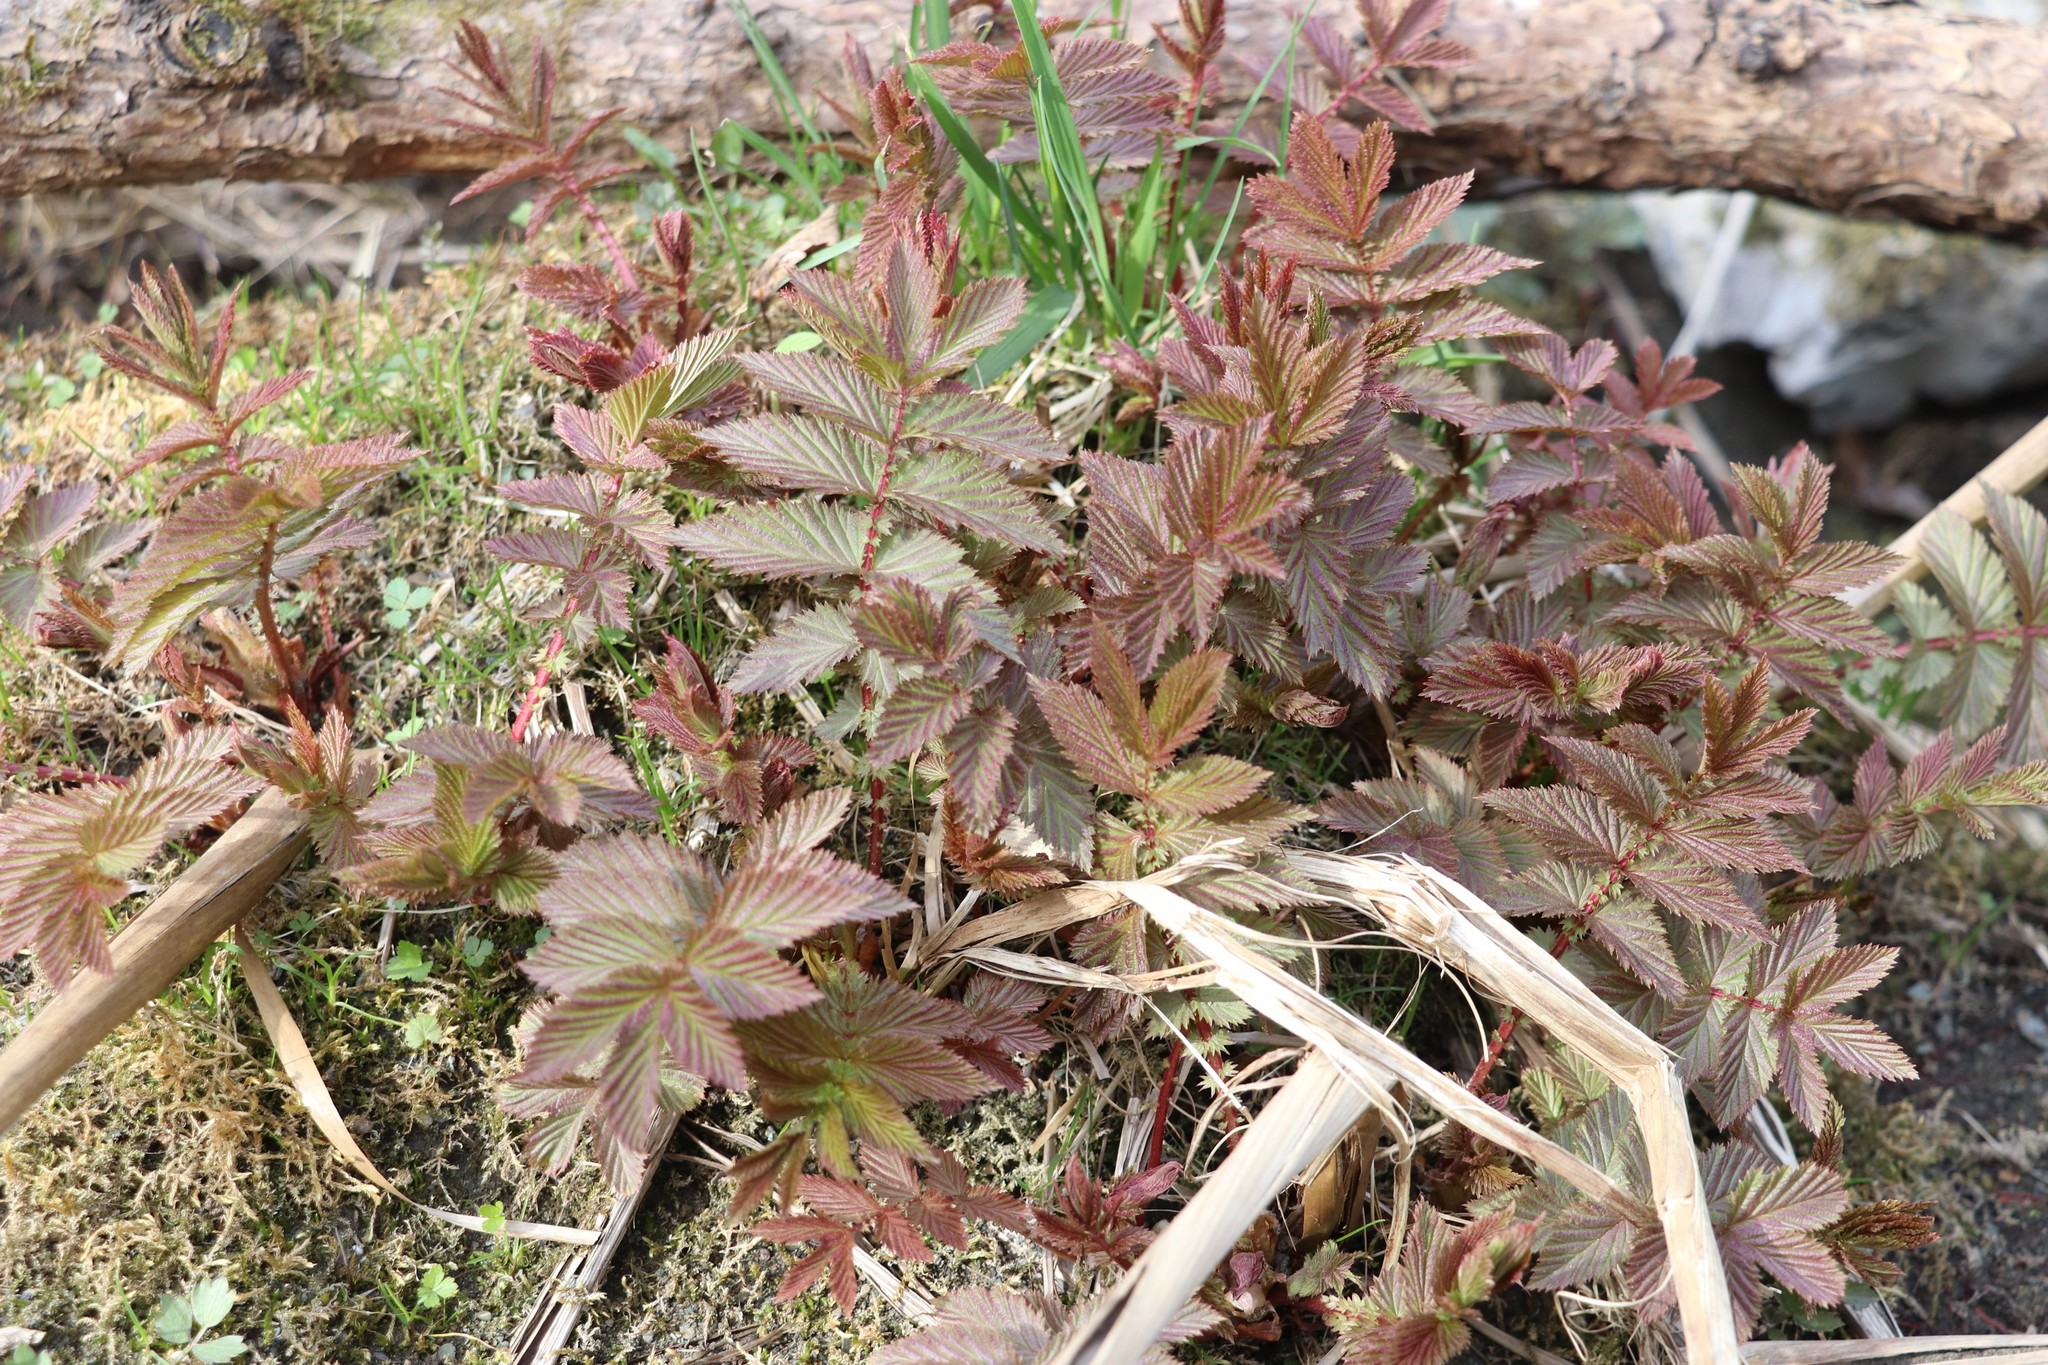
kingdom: Plantae
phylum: Tracheophyta
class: Magnoliopsida
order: Rosales
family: Rosaceae
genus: Filipendula
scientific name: Filipendula ulmaria
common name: Meadowsweet
